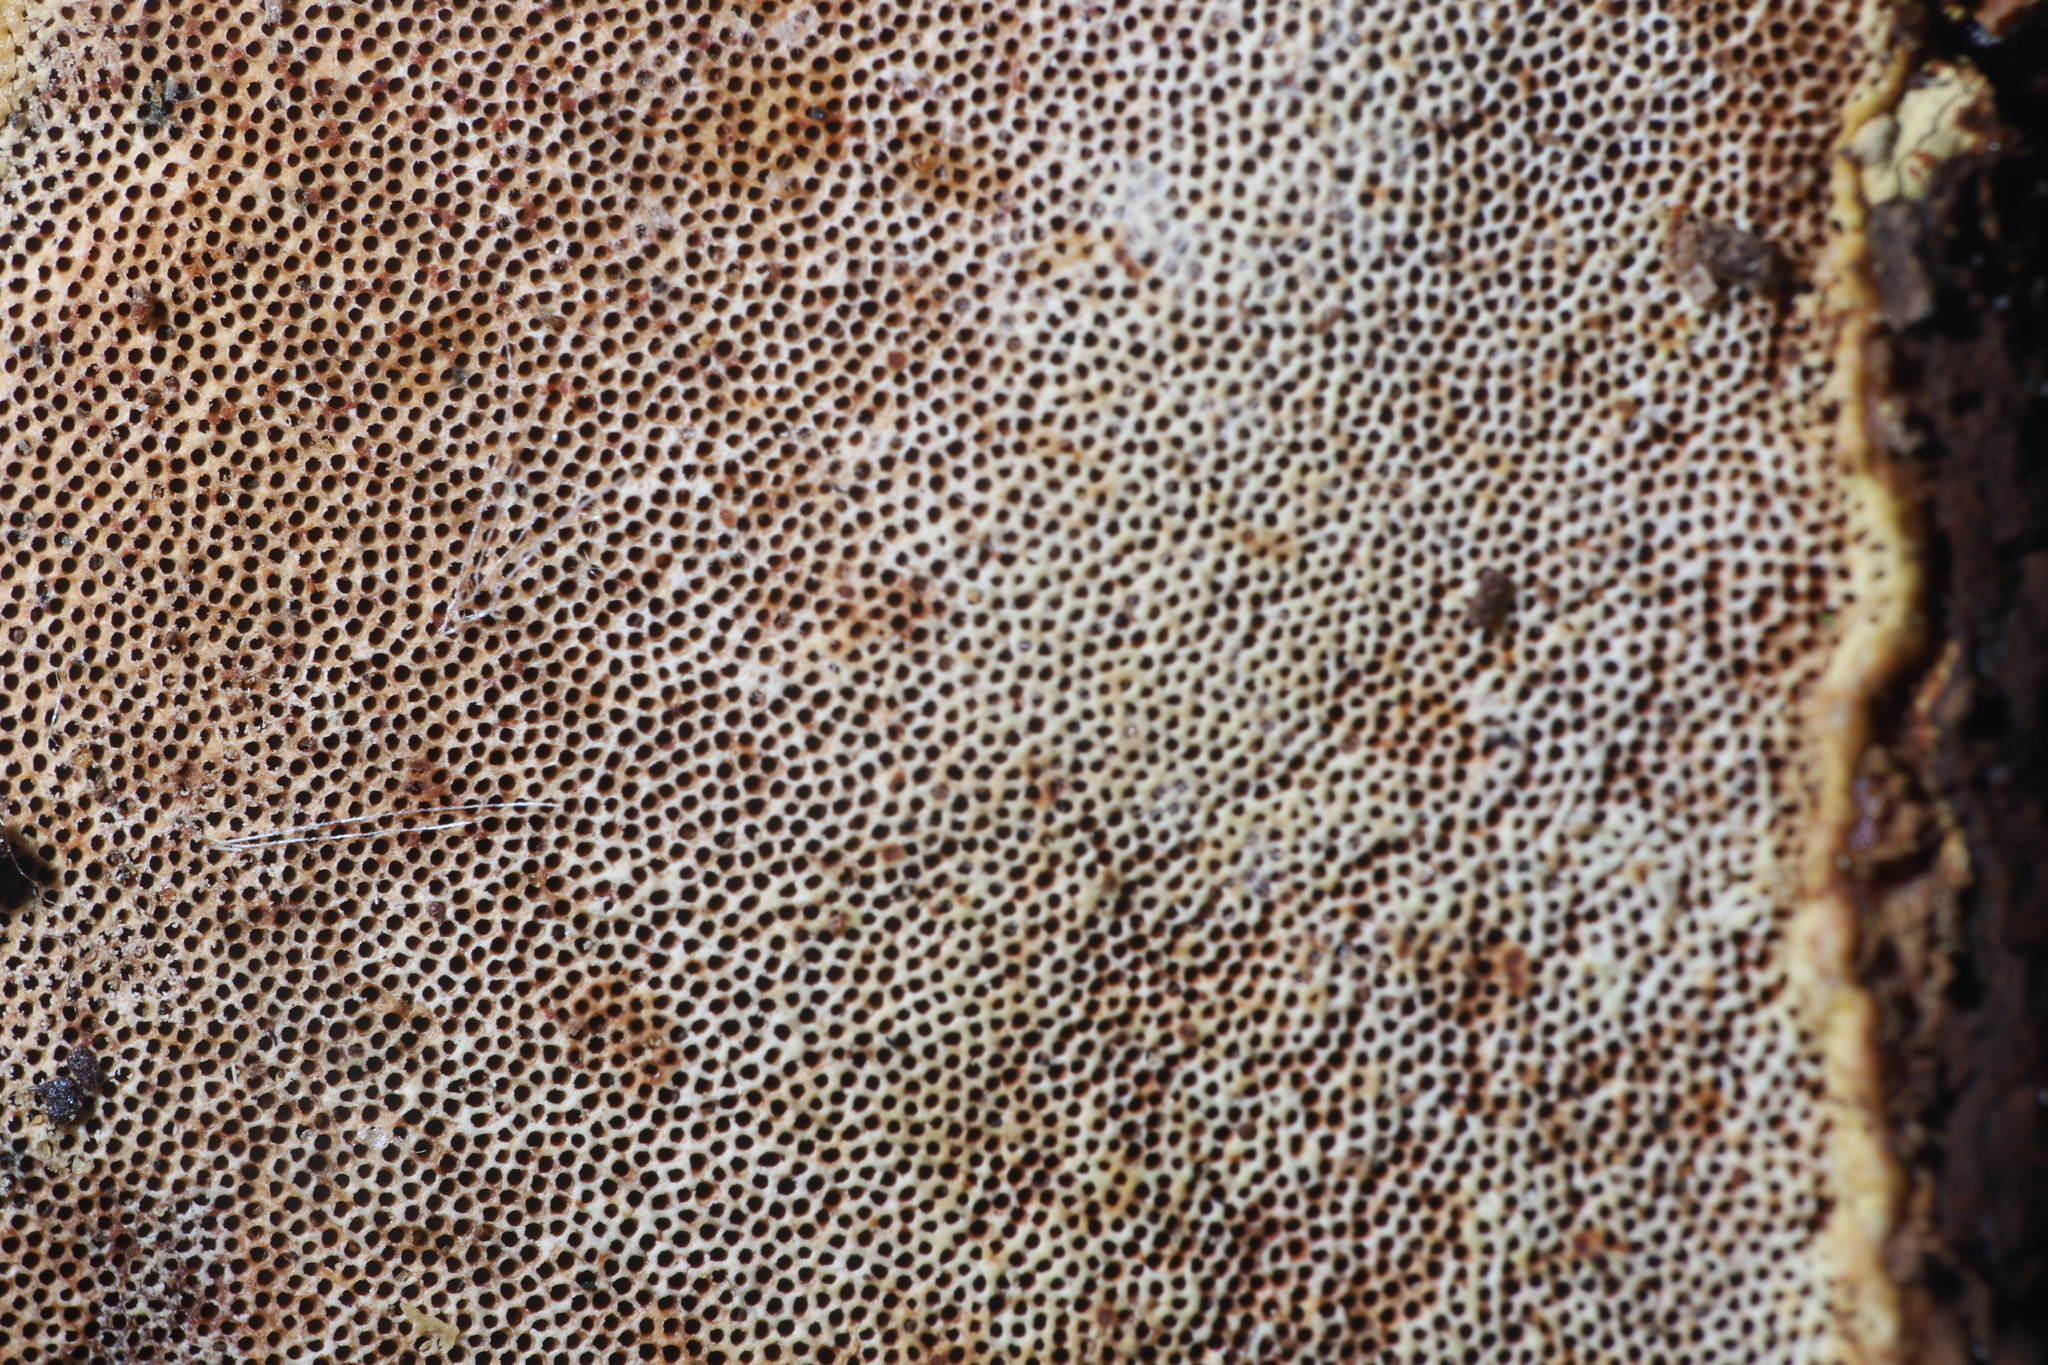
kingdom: Fungi
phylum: Basidiomycota
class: Agaricomycetes
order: Polyporales
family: Polyporaceae
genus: Ganoderma
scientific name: Ganoderma curtisii
